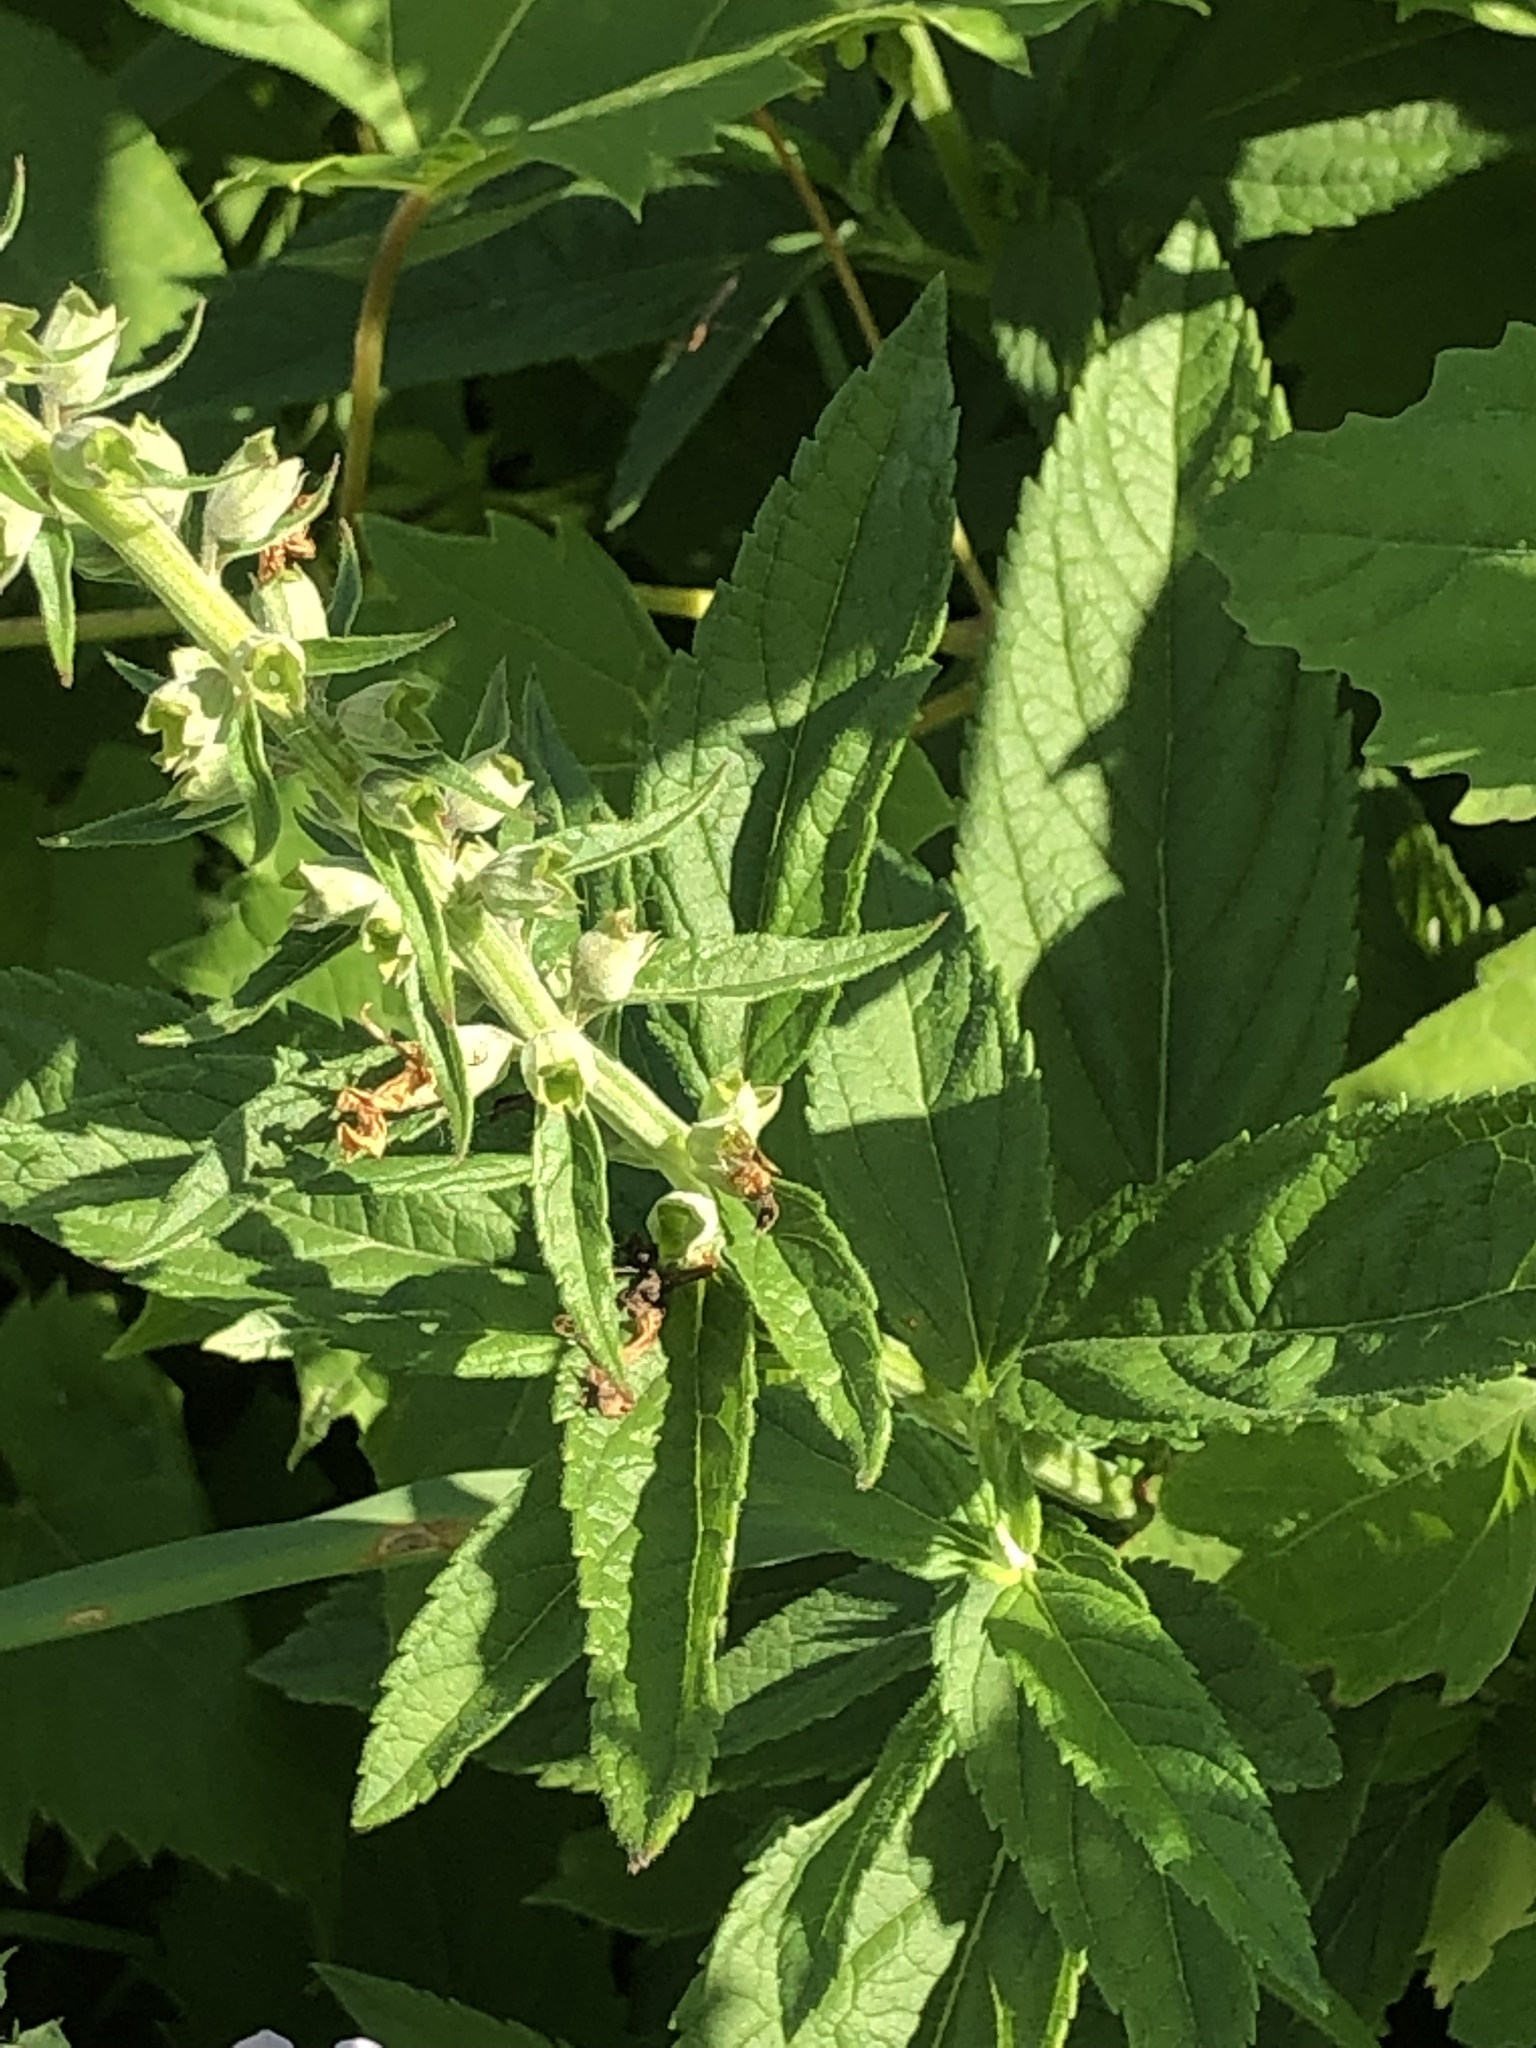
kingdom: Plantae
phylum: Tracheophyta
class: Magnoliopsida
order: Lamiales
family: Lamiaceae
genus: Teucrium
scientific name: Teucrium canadense
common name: American germander
